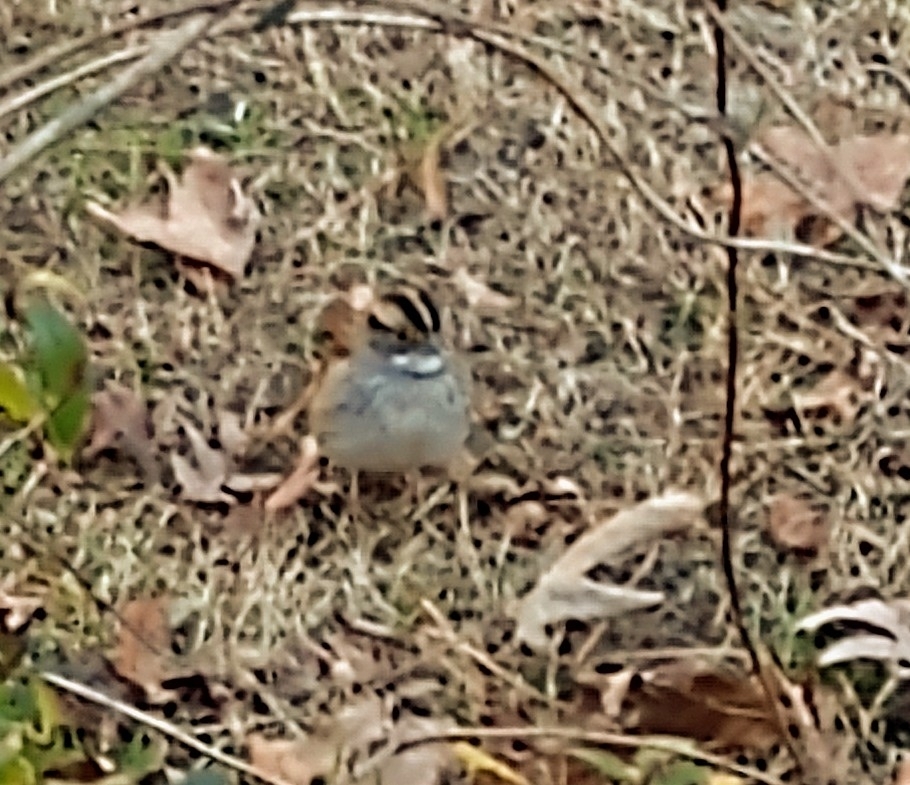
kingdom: Animalia
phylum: Chordata
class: Aves
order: Passeriformes
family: Passerellidae
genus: Zonotrichia
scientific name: Zonotrichia albicollis
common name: White-throated sparrow
